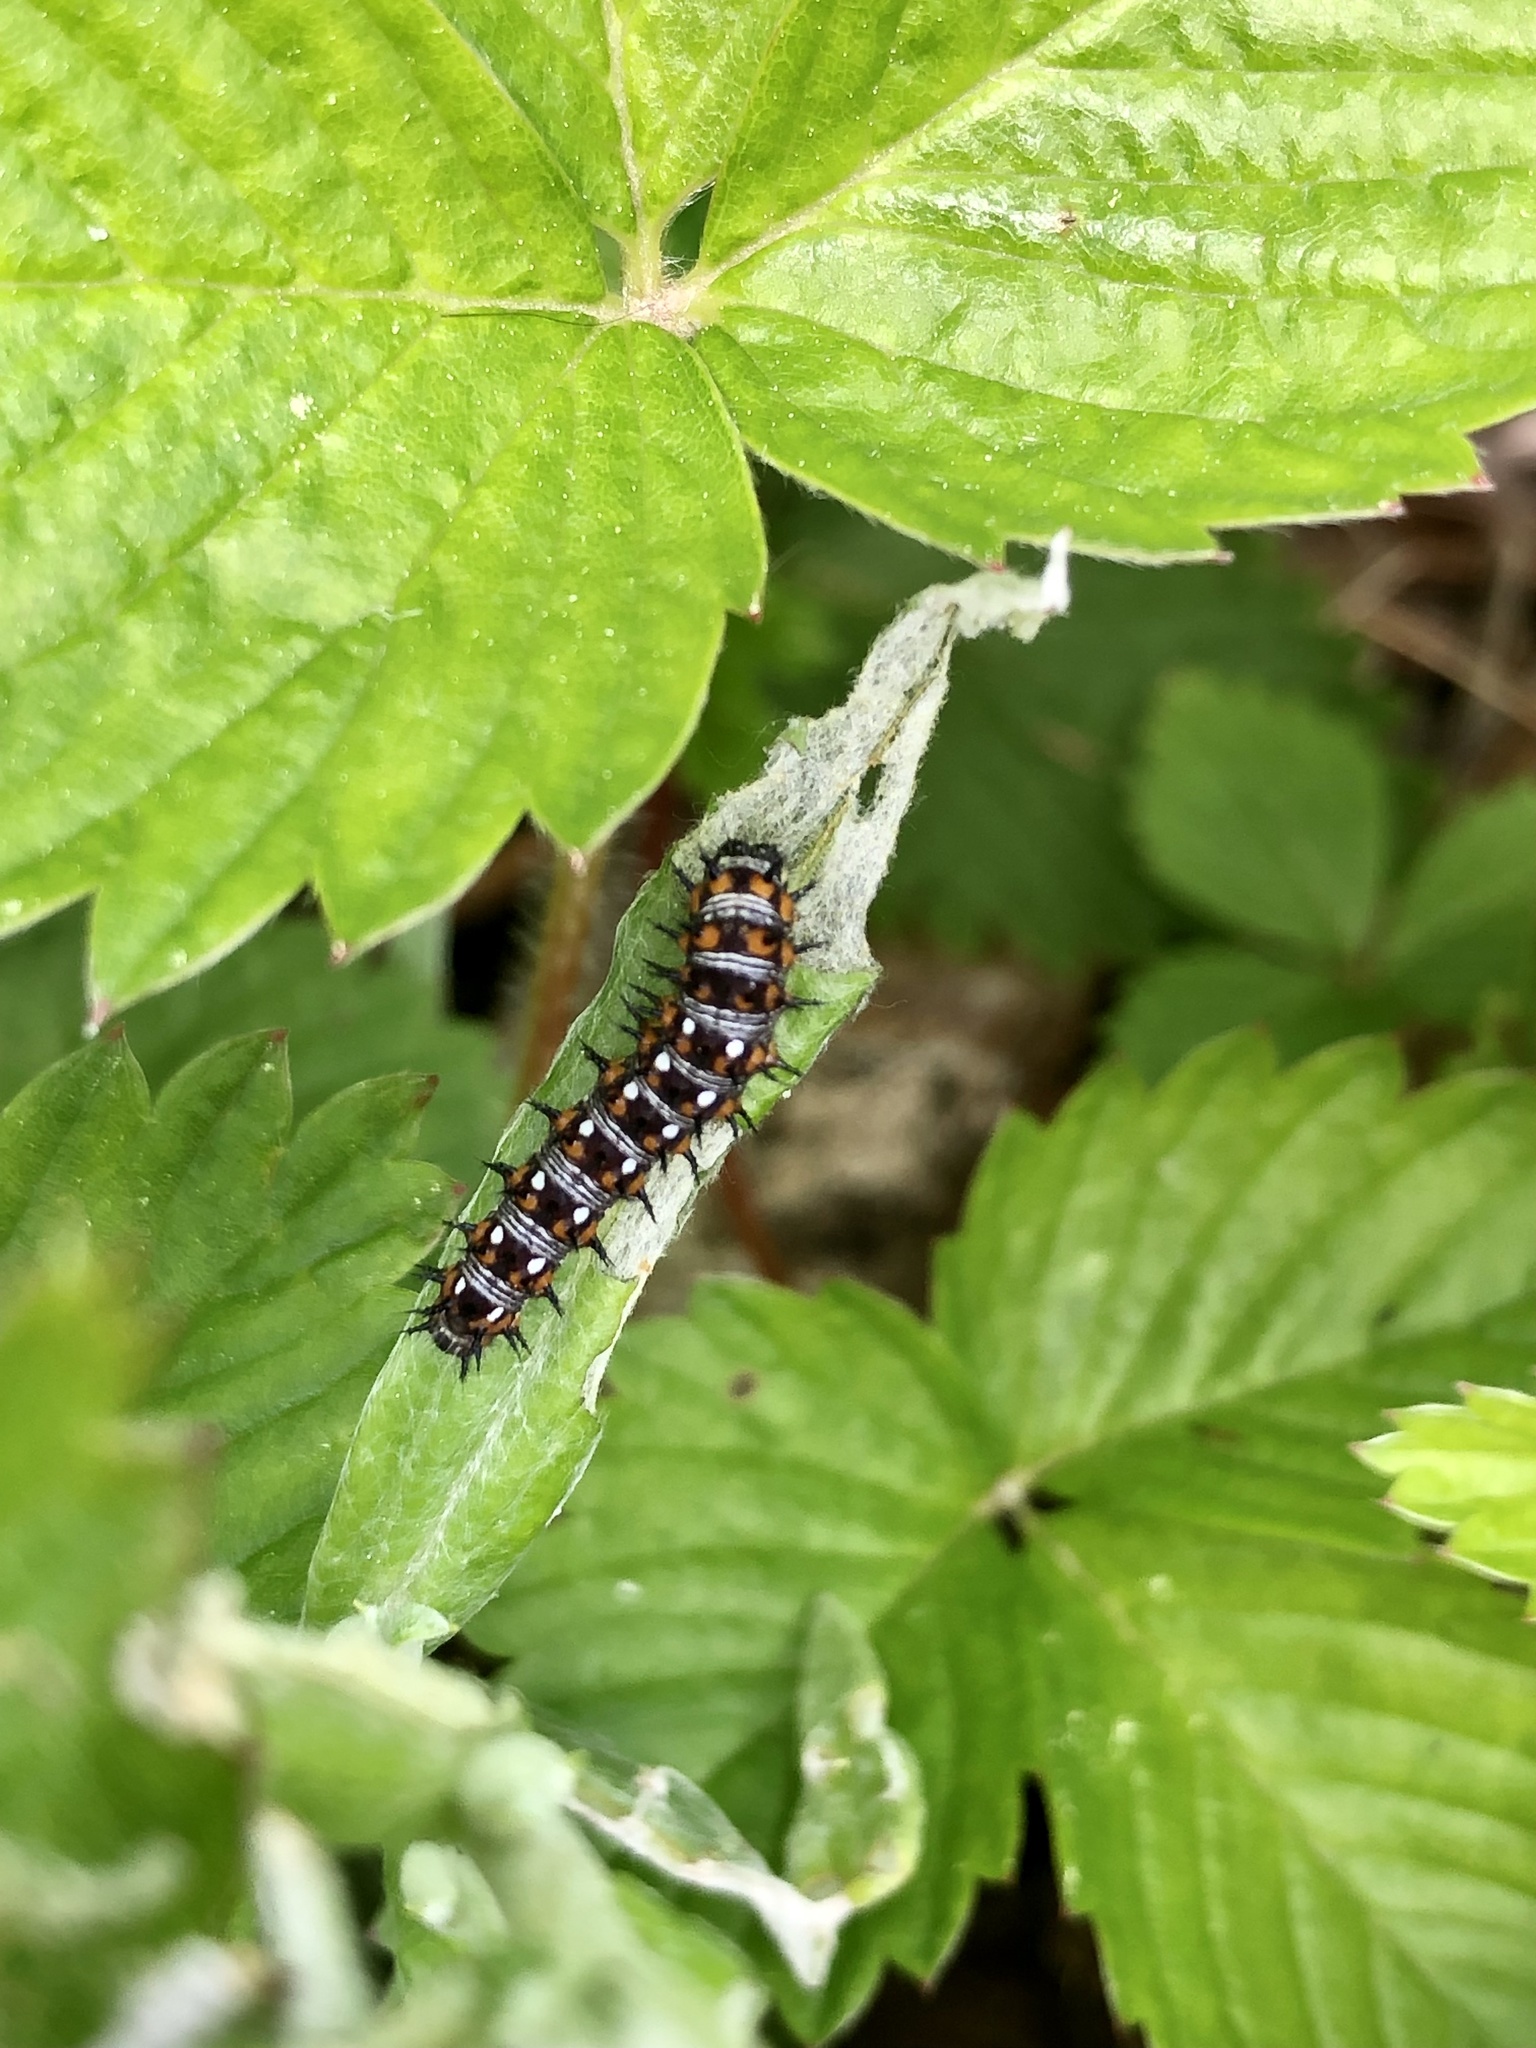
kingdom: Animalia
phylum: Arthropoda
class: Insecta
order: Lepidoptera
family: Nymphalidae
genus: Vanessa
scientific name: Vanessa virginiensis
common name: American lady
